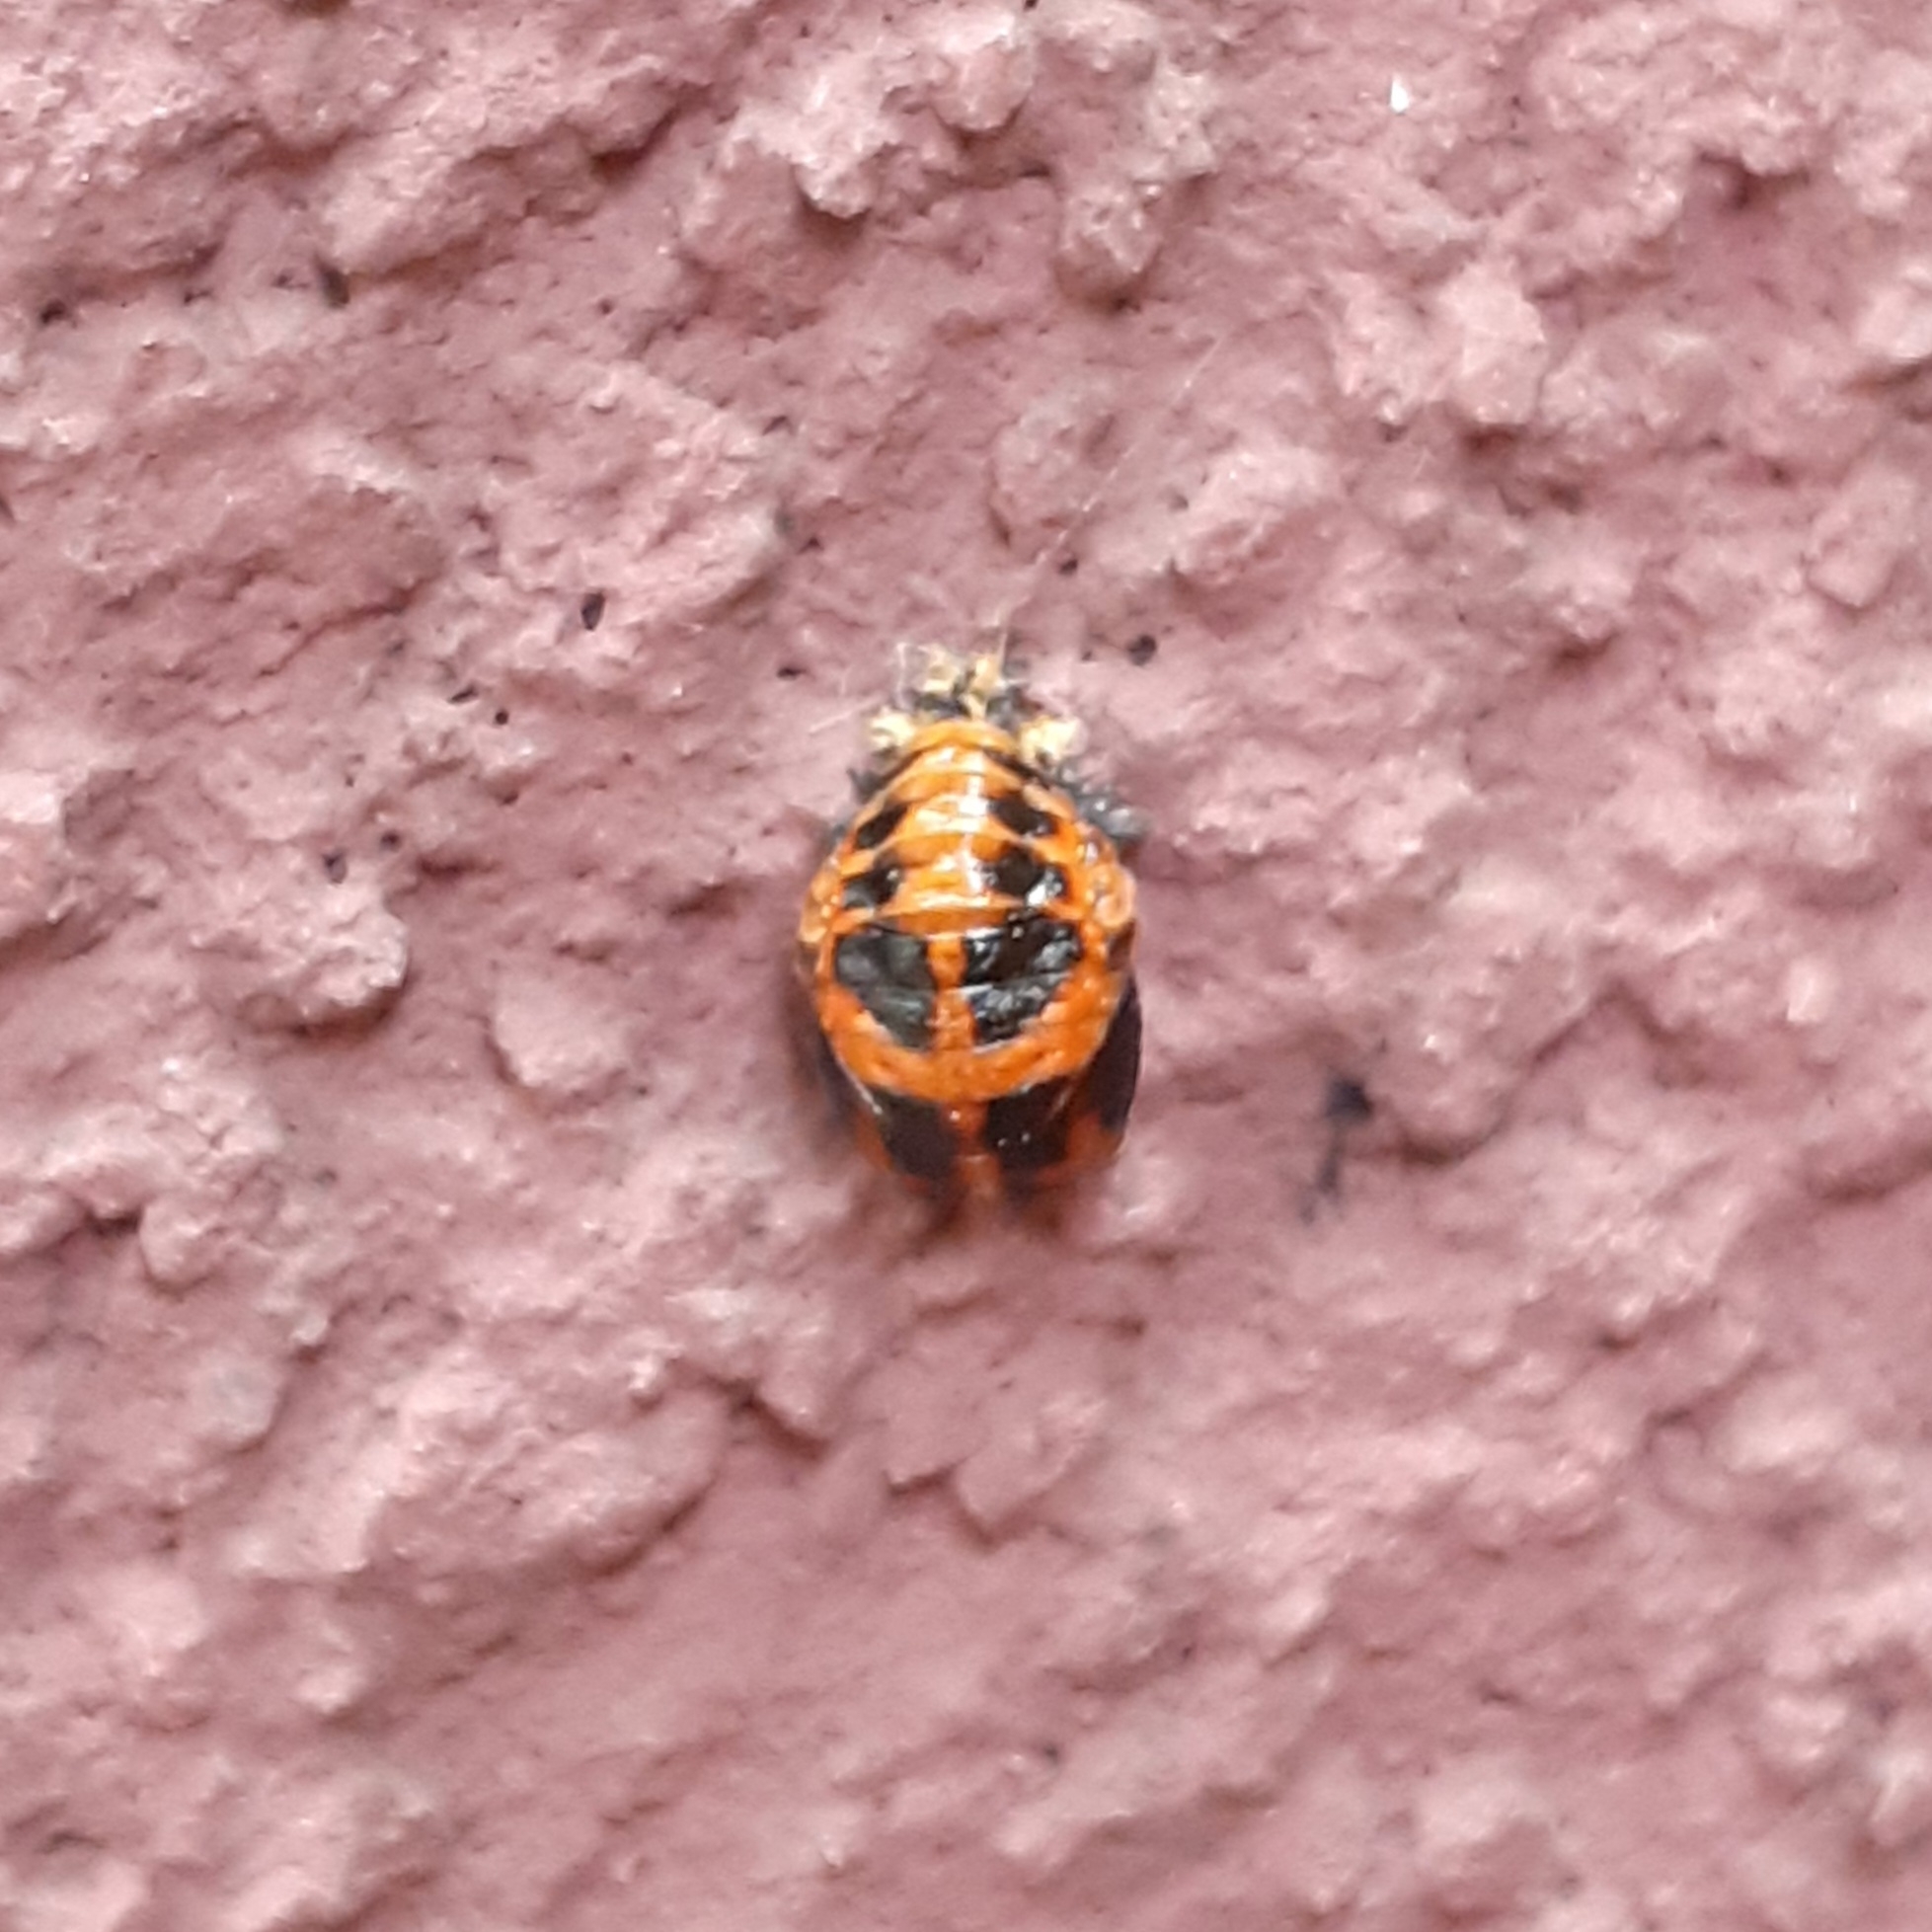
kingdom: Animalia
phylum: Arthropoda
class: Insecta
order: Coleoptera
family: Coccinellidae
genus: Harmonia
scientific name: Harmonia axyridis
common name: Harlequin ladybird
